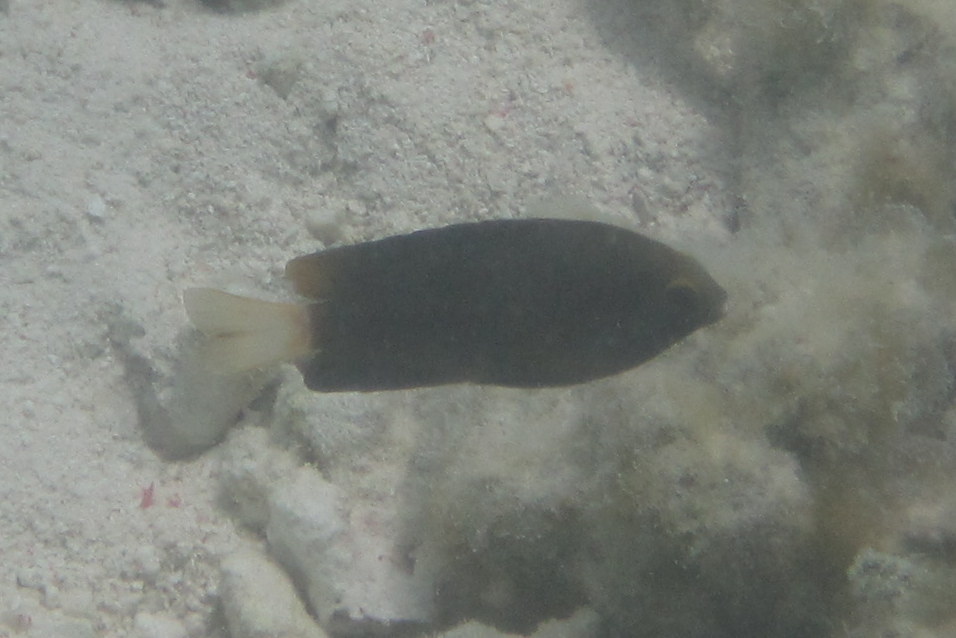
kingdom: Animalia
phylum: Chordata
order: Perciformes
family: Pomacentridae
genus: Plectroglyphidodon
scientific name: Plectroglyphidodon lacrymatus
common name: Jewel damsel
